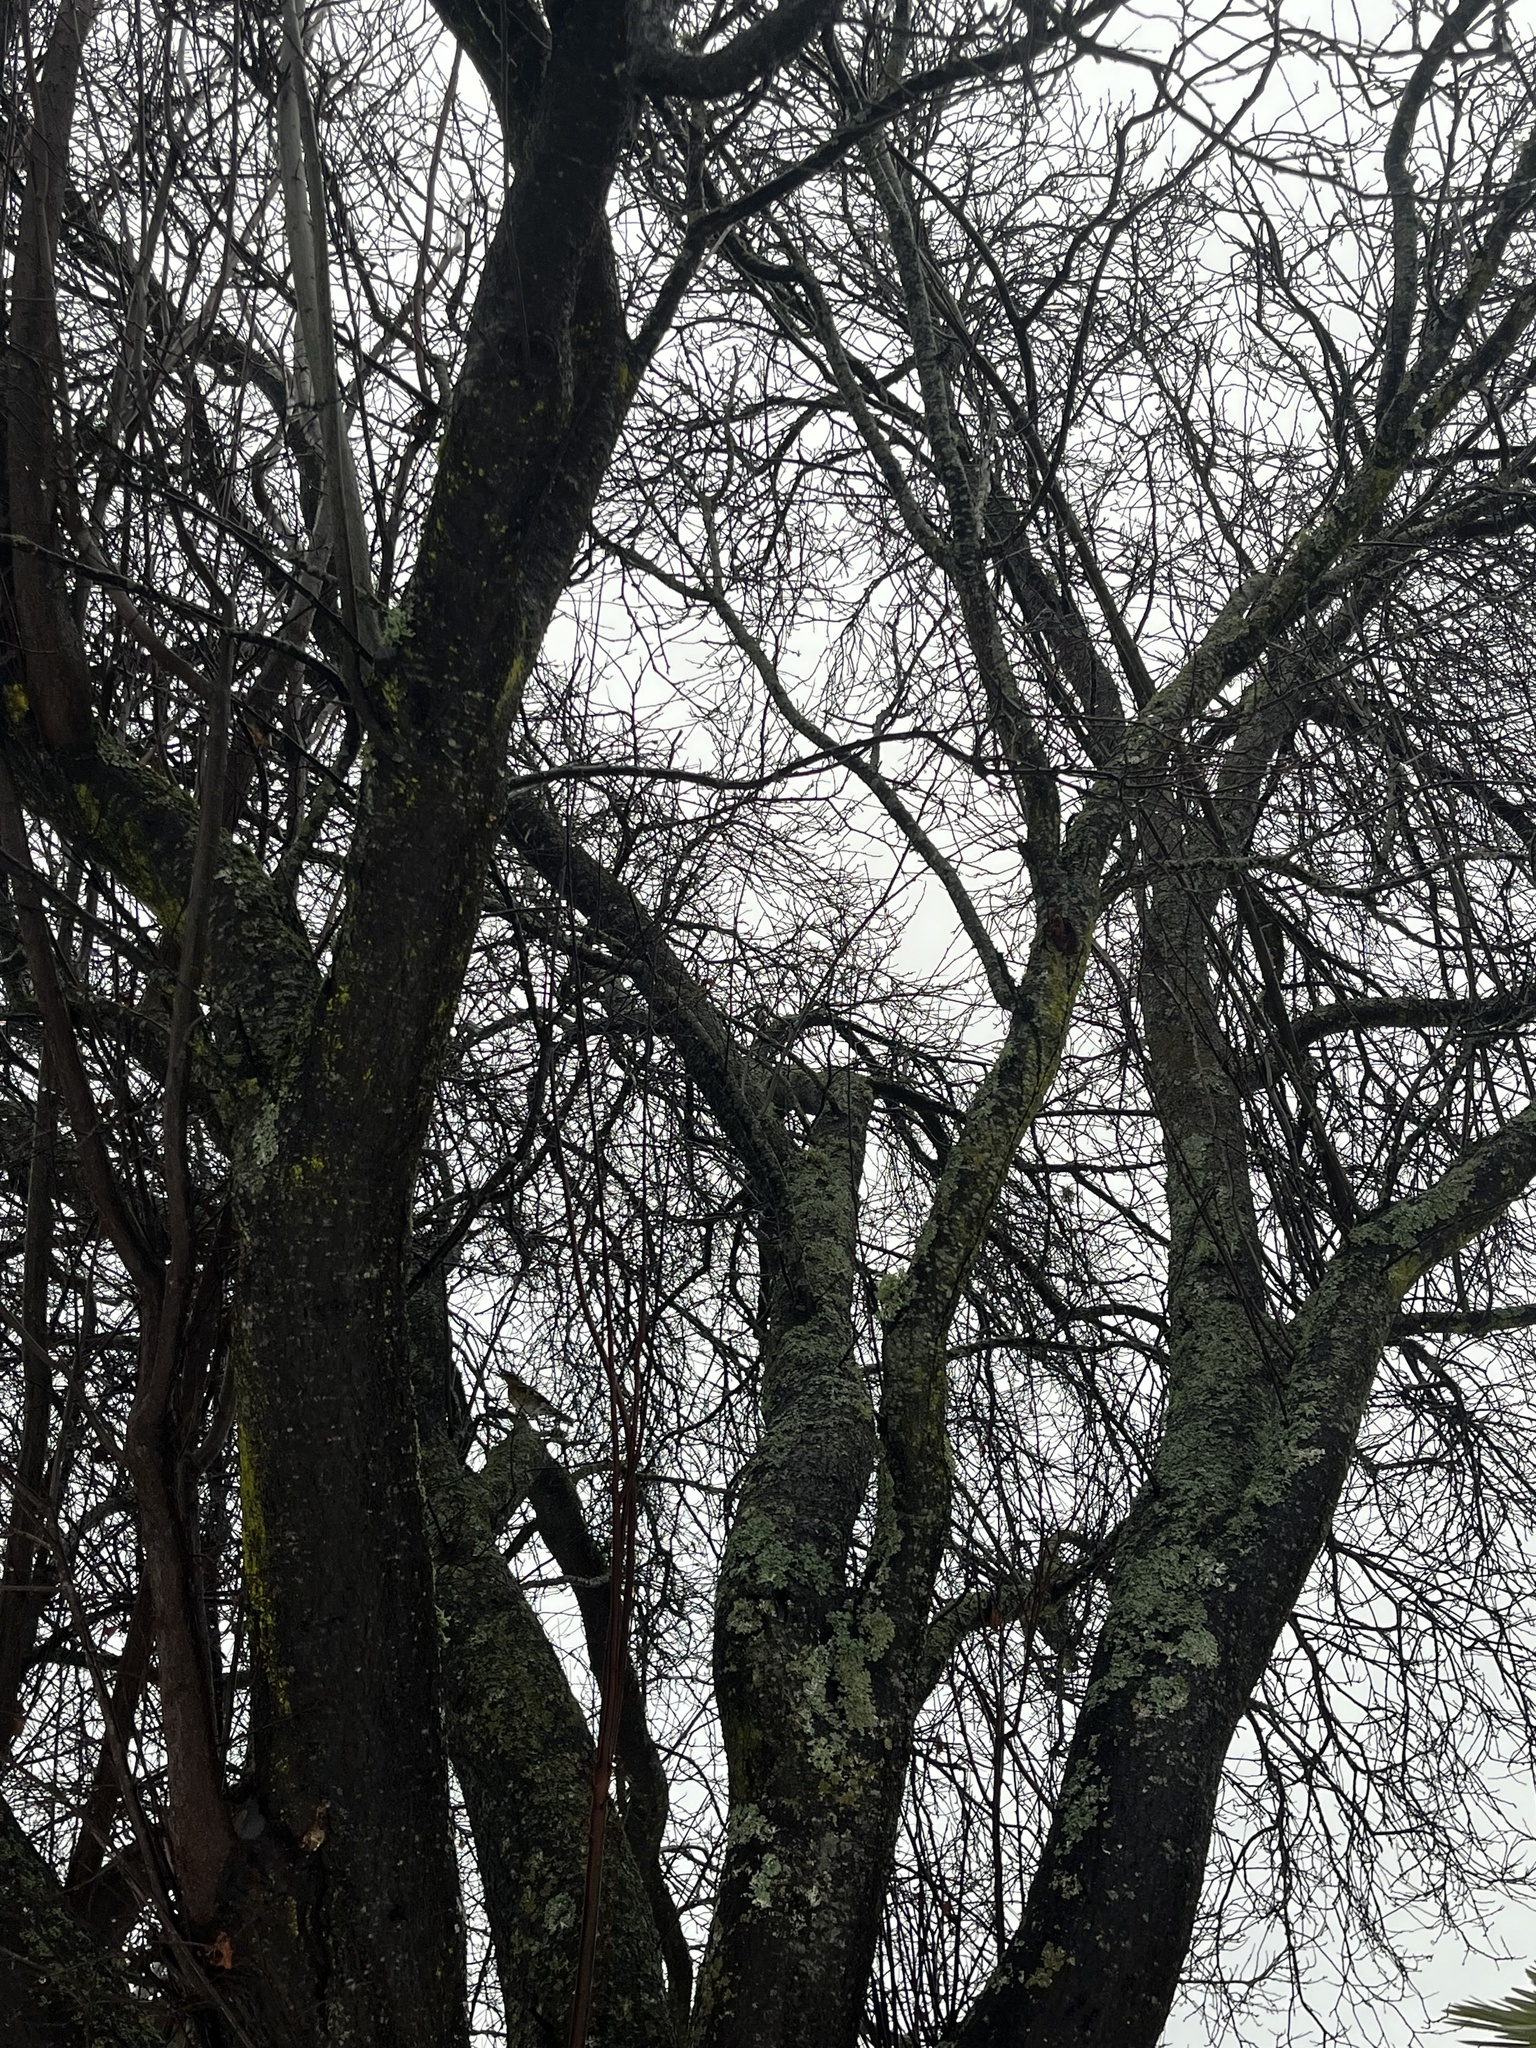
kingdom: Animalia
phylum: Chordata
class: Aves
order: Passeriformes
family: Turdidae
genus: Ixoreus
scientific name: Ixoreus naevius
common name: Varied thrush
